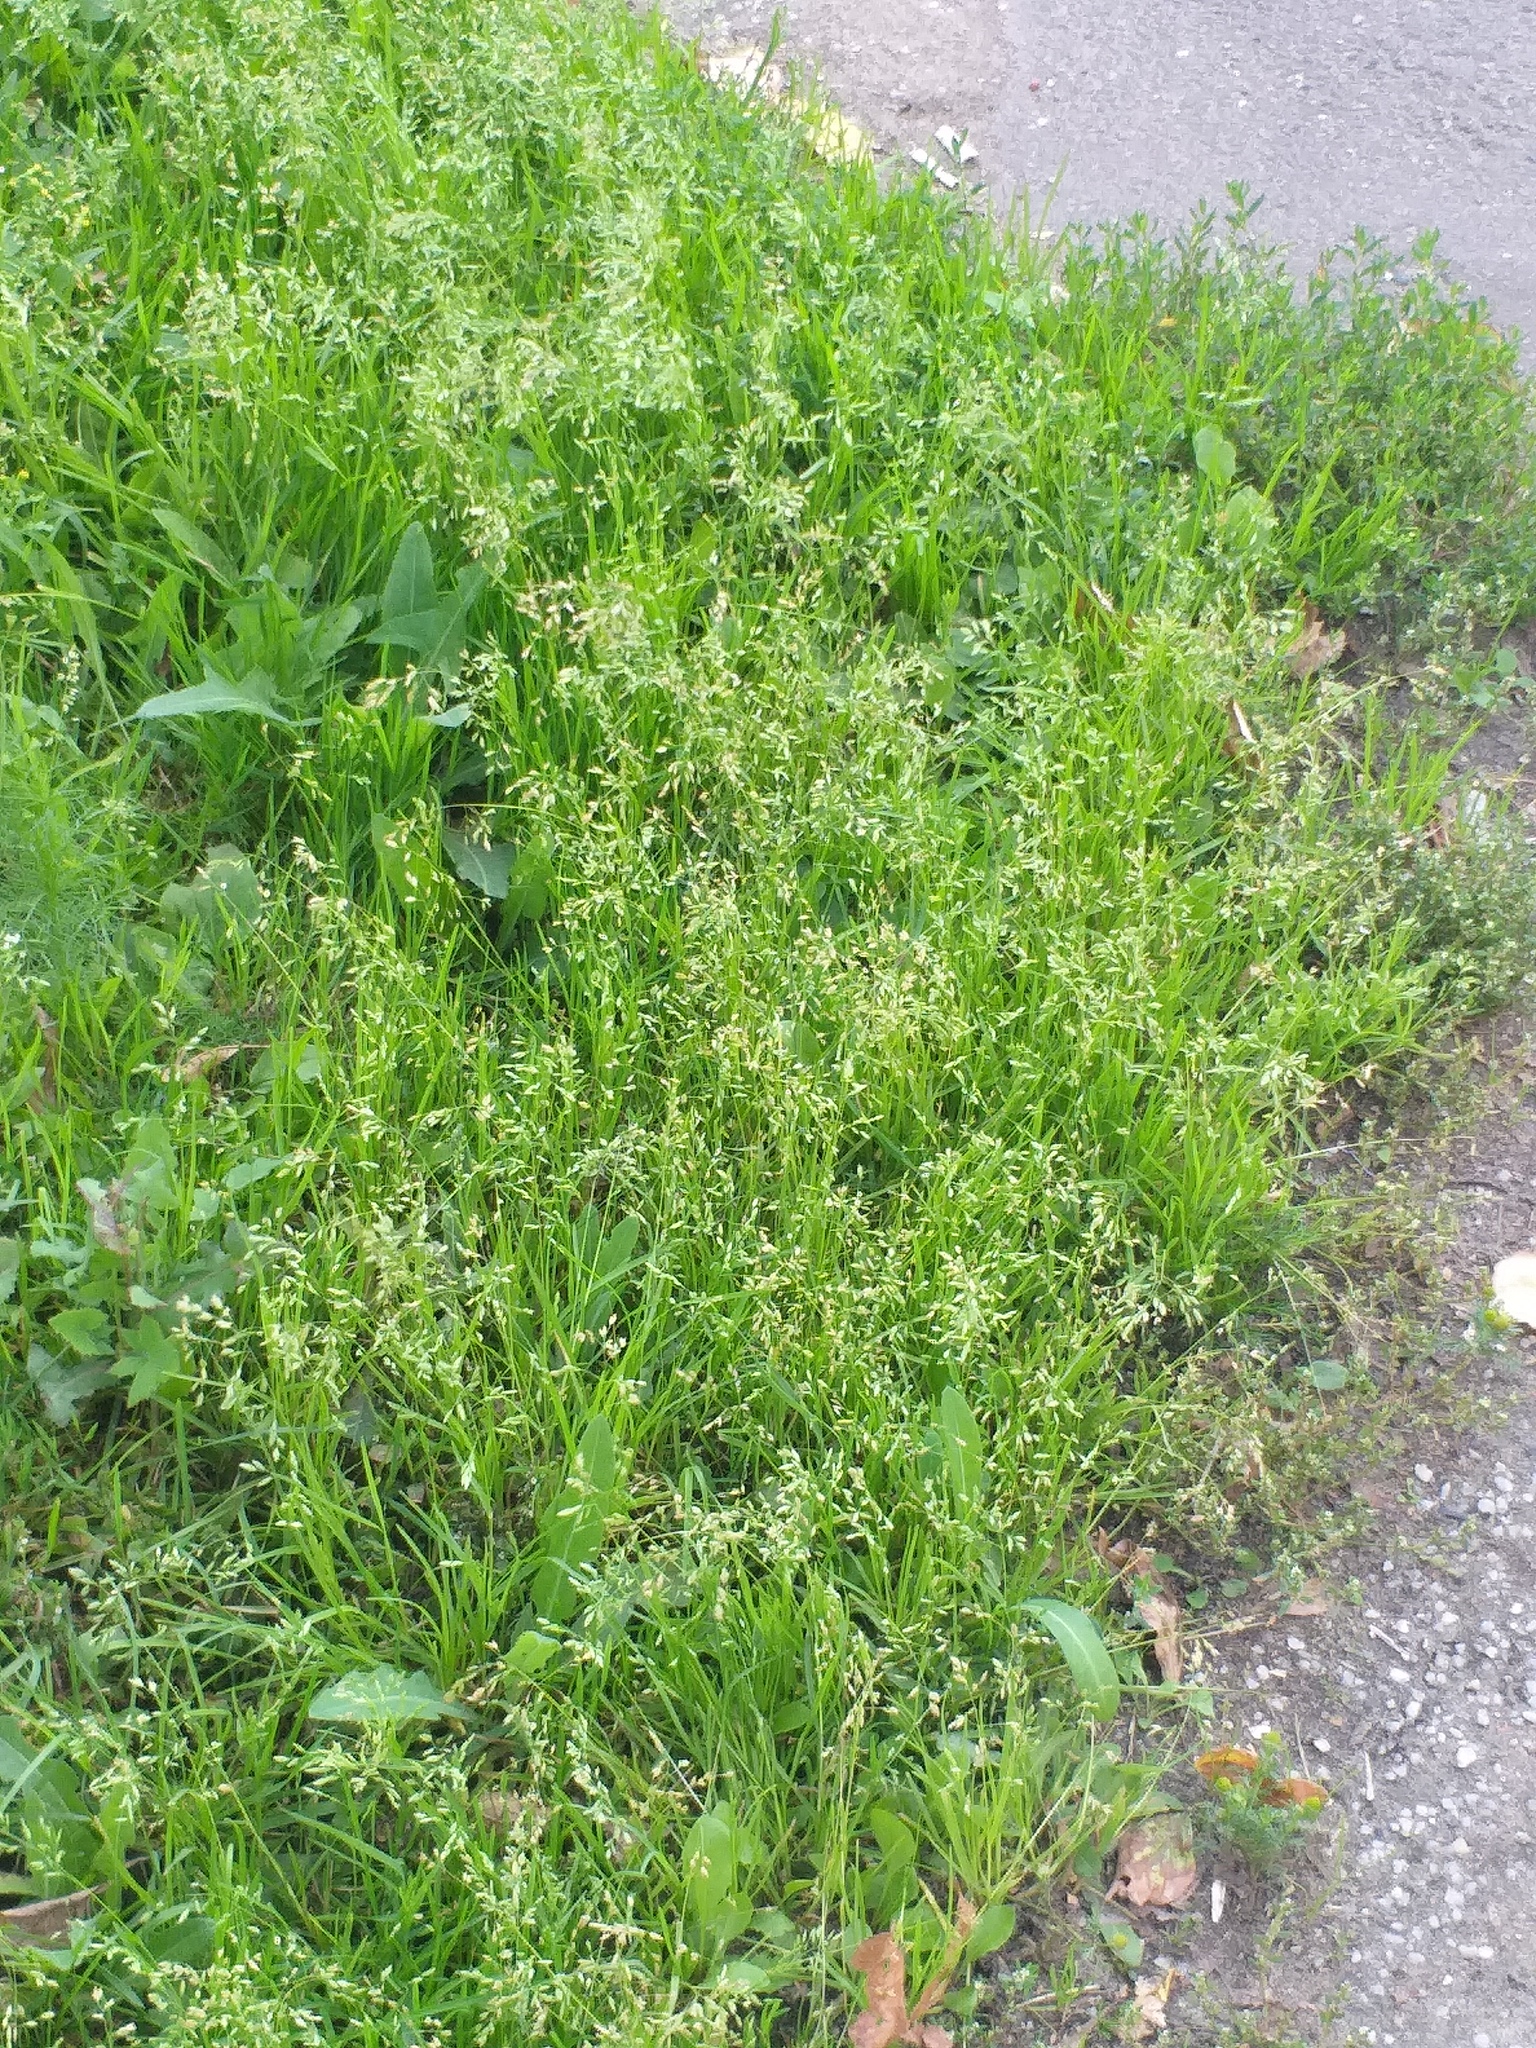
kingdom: Plantae
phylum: Tracheophyta
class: Liliopsida
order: Poales
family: Poaceae
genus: Poa
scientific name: Poa supina
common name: Supina bluegrass
